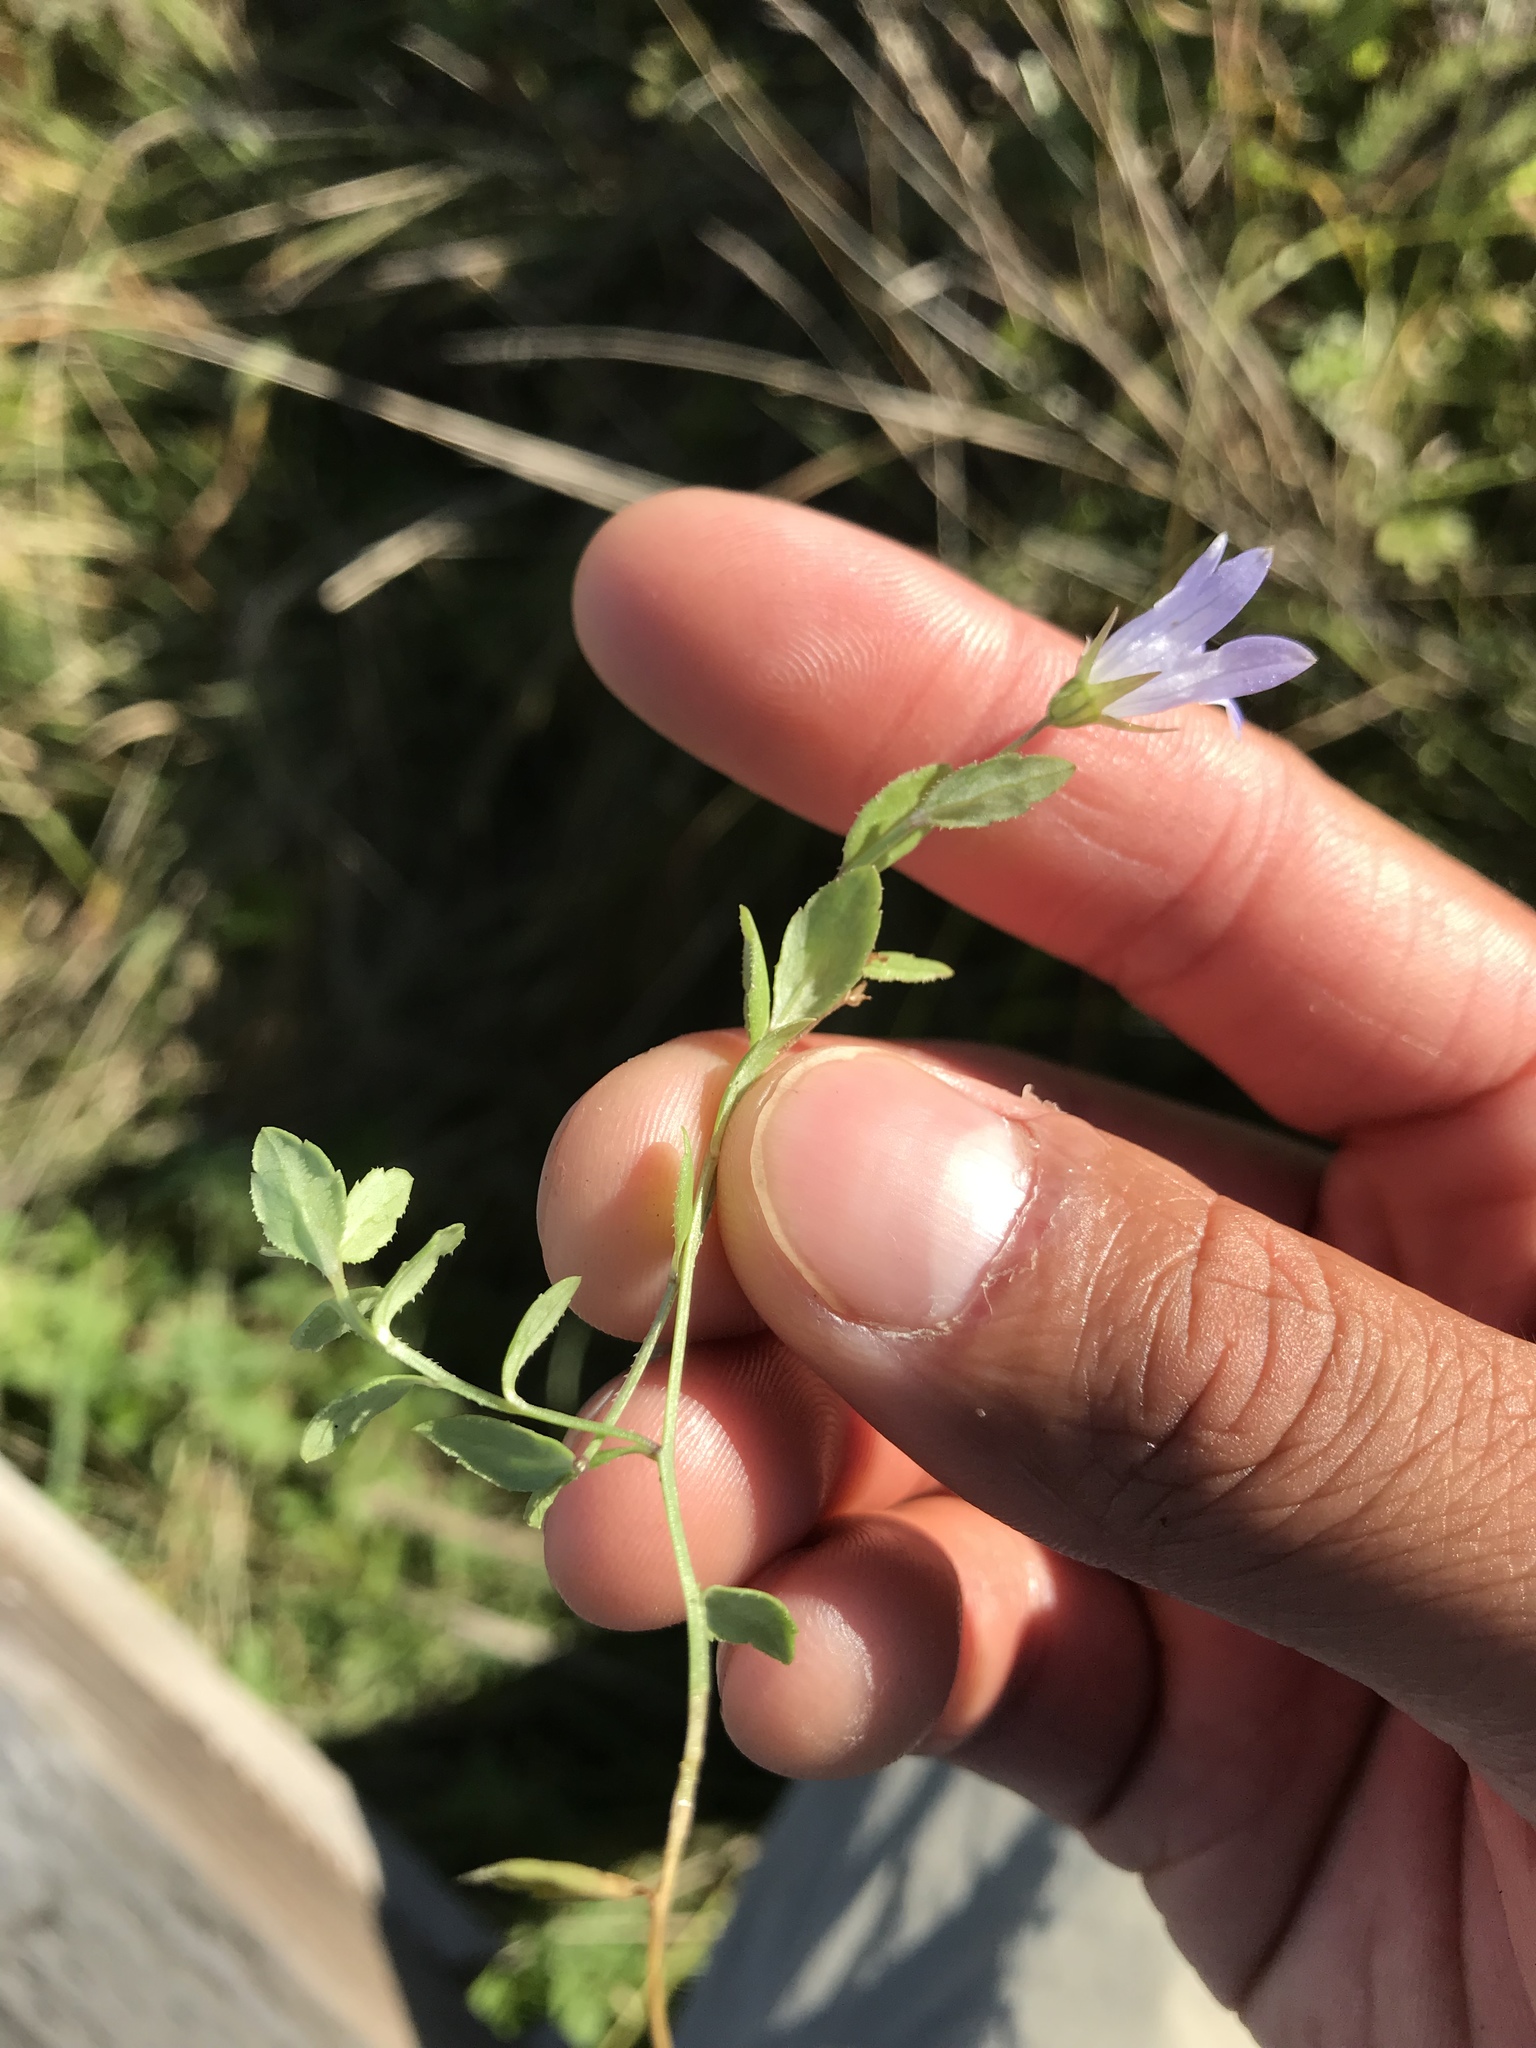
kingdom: Plantae
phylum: Tracheophyta
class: Magnoliopsida
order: Asterales
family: Campanulaceae
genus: Eastwoodiella
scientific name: Eastwoodiella californica
